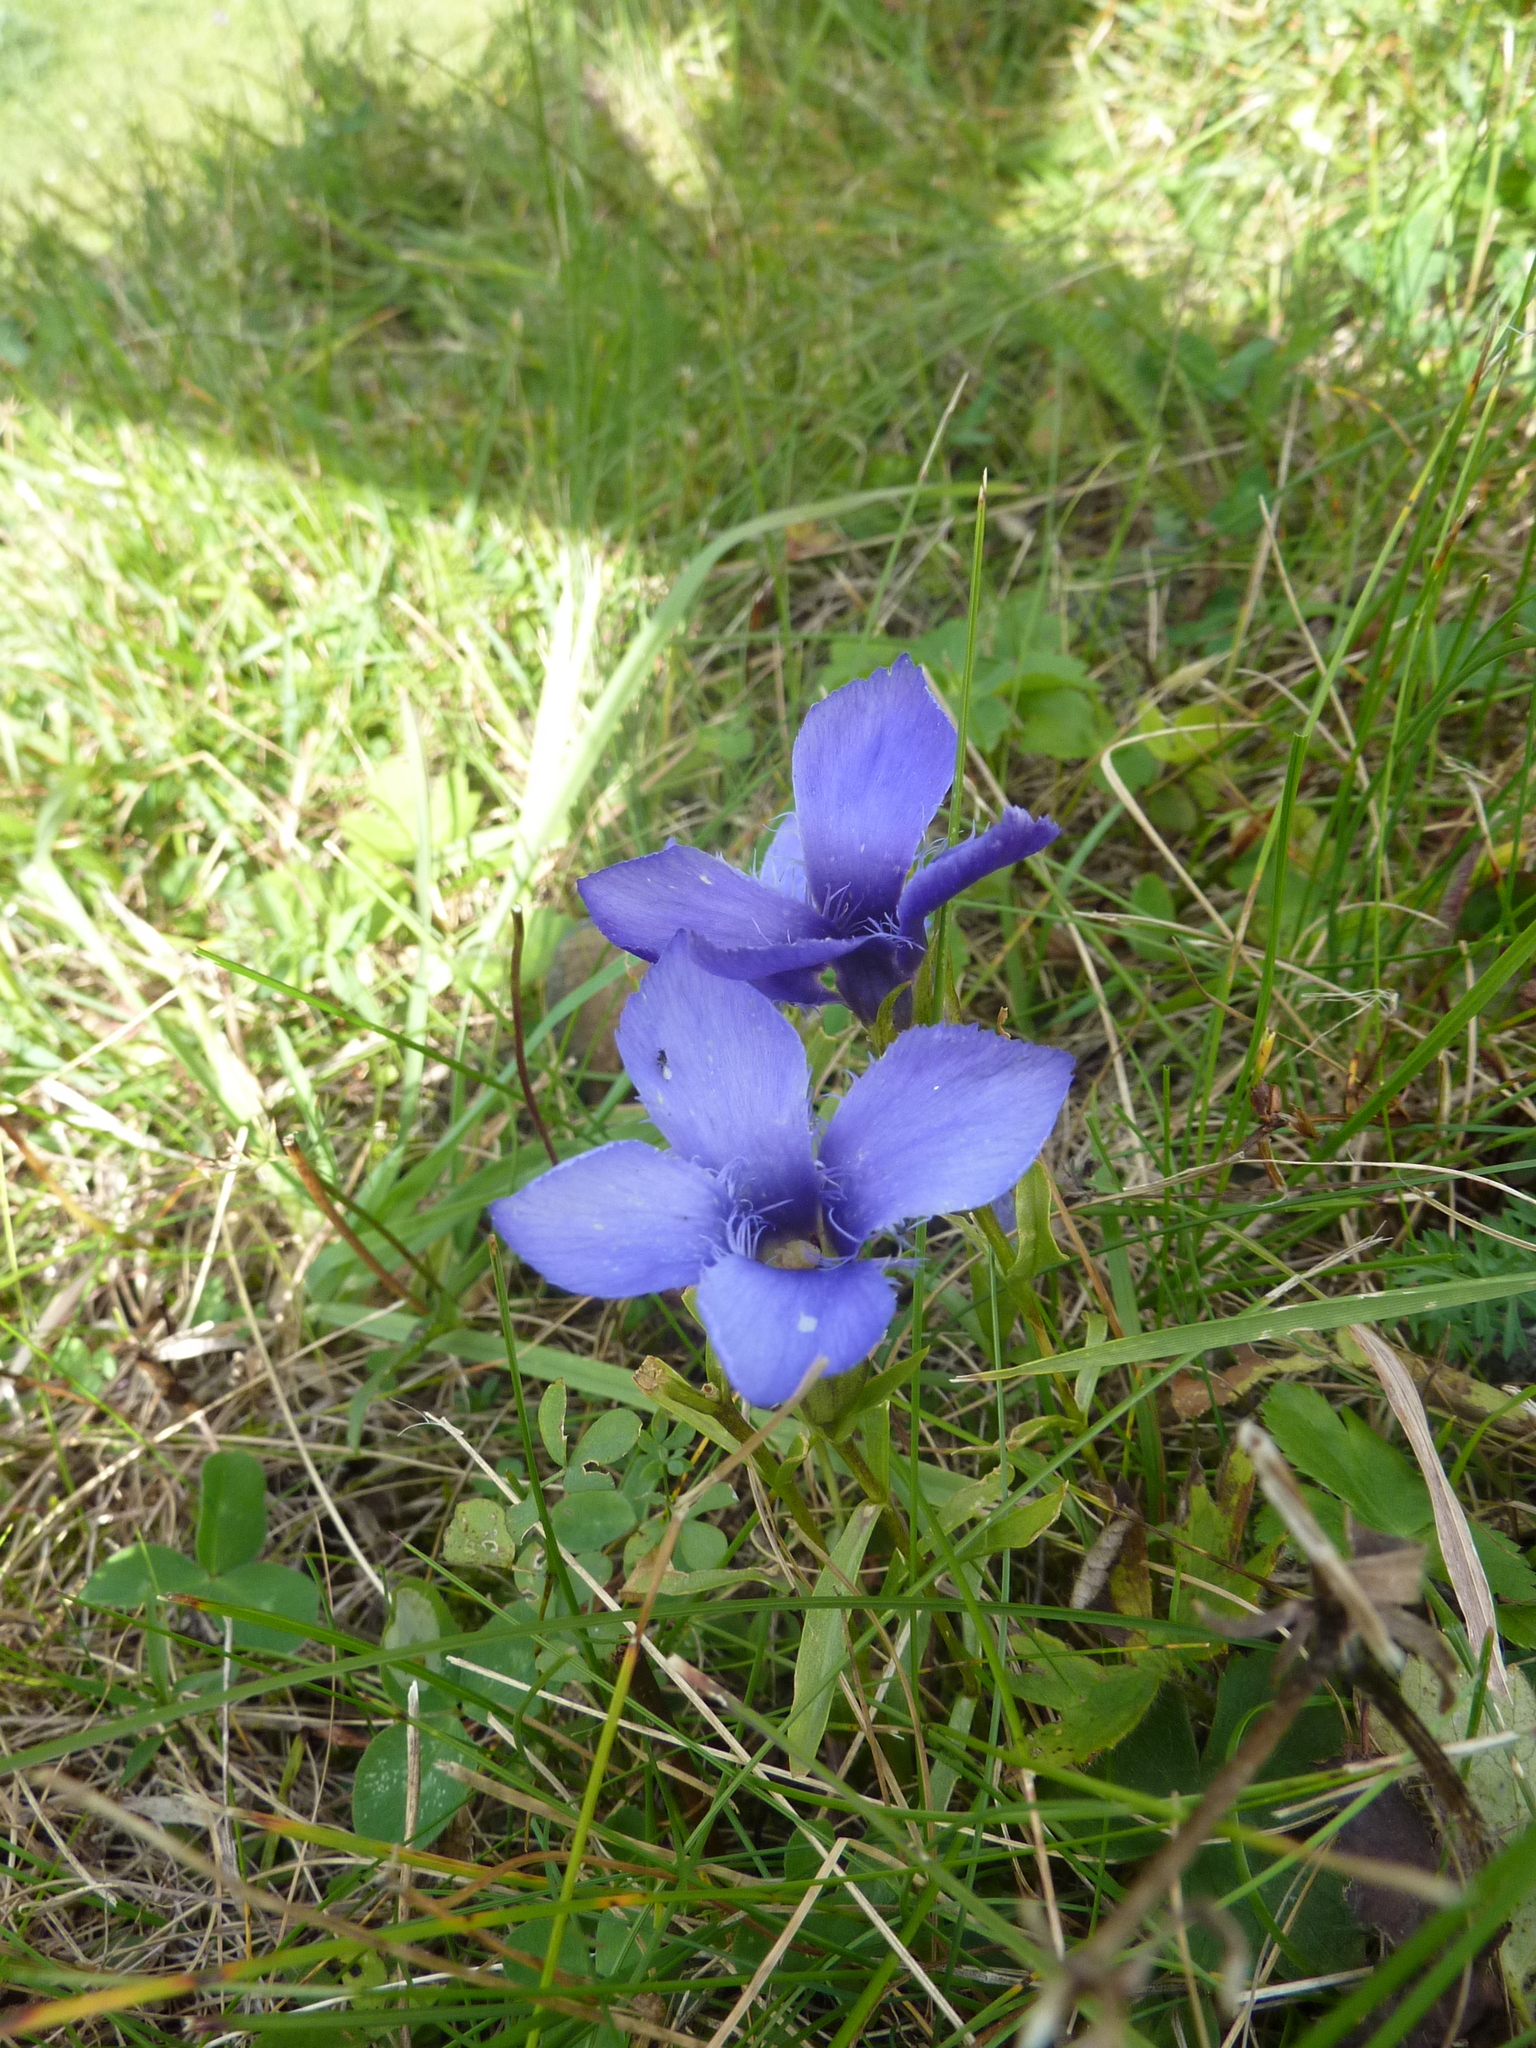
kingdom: Plantae
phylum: Tracheophyta
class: Magnoliopsida
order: Gentianales
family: Gentianaceae
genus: Gentianopsis
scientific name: Gentianopsis ciliata
